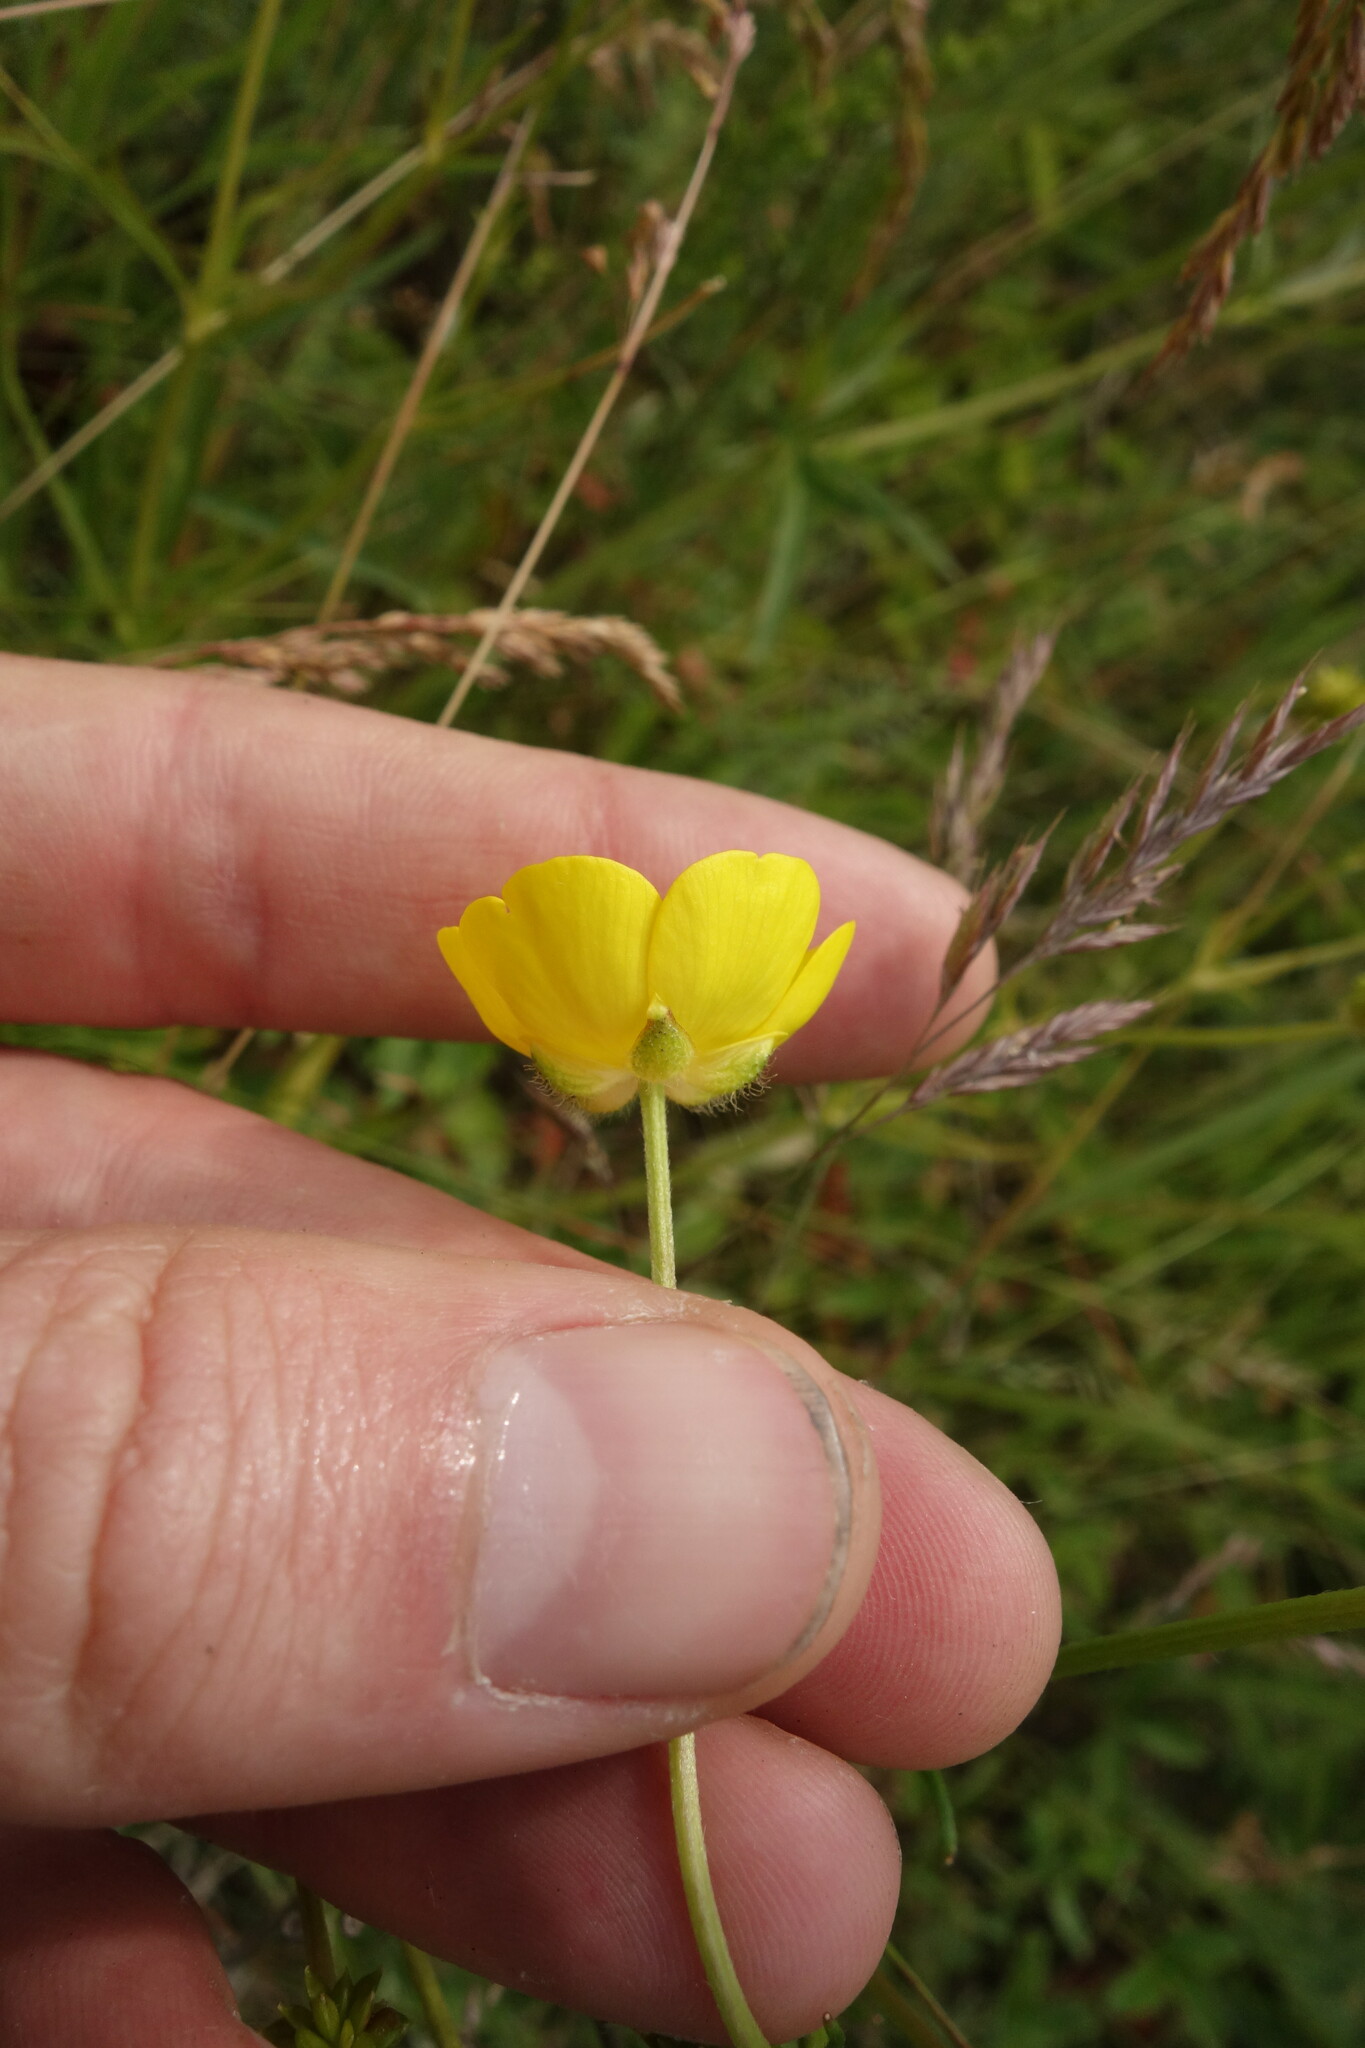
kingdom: Plantae
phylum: Tracheophyta
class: Magnoliopsida
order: Ranunculales
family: Ranunculaceae
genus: Ranunculus
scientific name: Ranunculus polyanthemos
